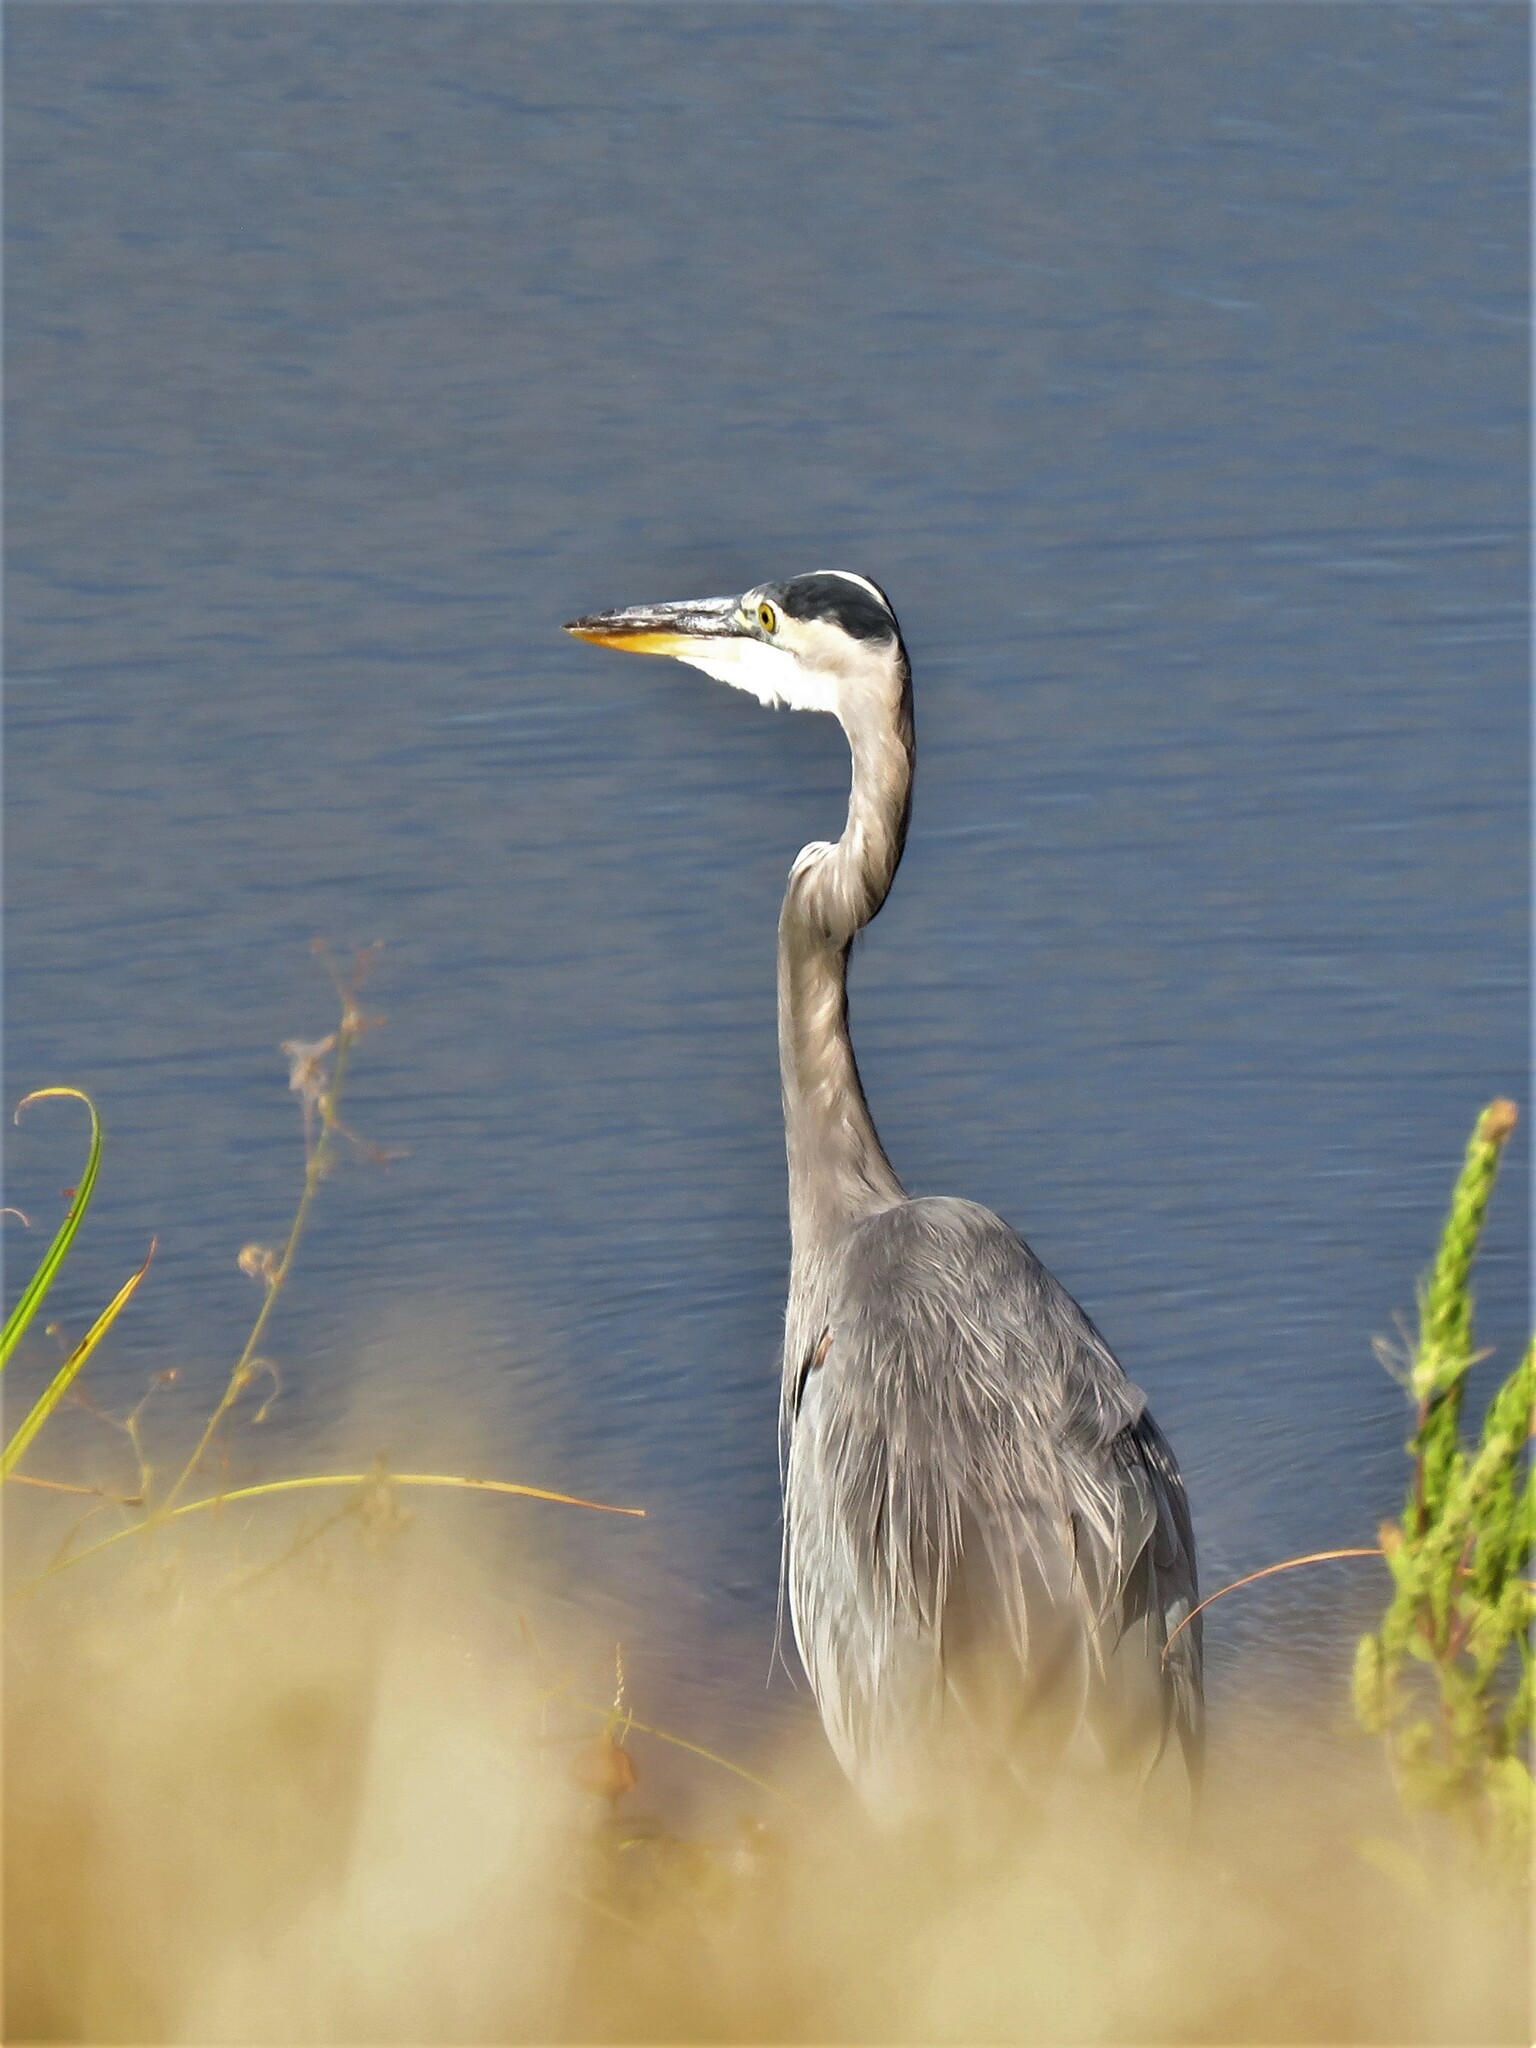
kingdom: Animalia
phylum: Chordata
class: Aves
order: Pelecaniformes
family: Ardeidae
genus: Ardea
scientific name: Ardea herodias
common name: Great blue heron
